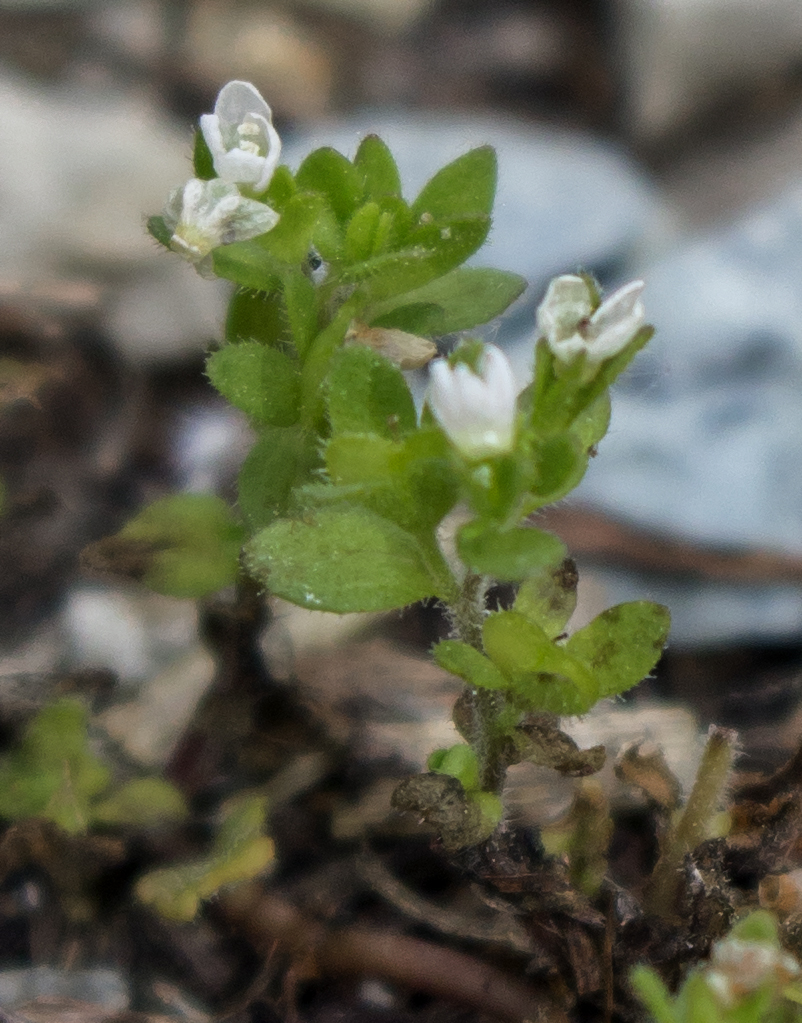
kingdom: Plantae
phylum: Tracheophyta
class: Magnoliopsida
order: Lamiales
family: Plantaginaceae
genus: Veronica
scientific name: Veronica arvensis
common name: Corn speedwell
